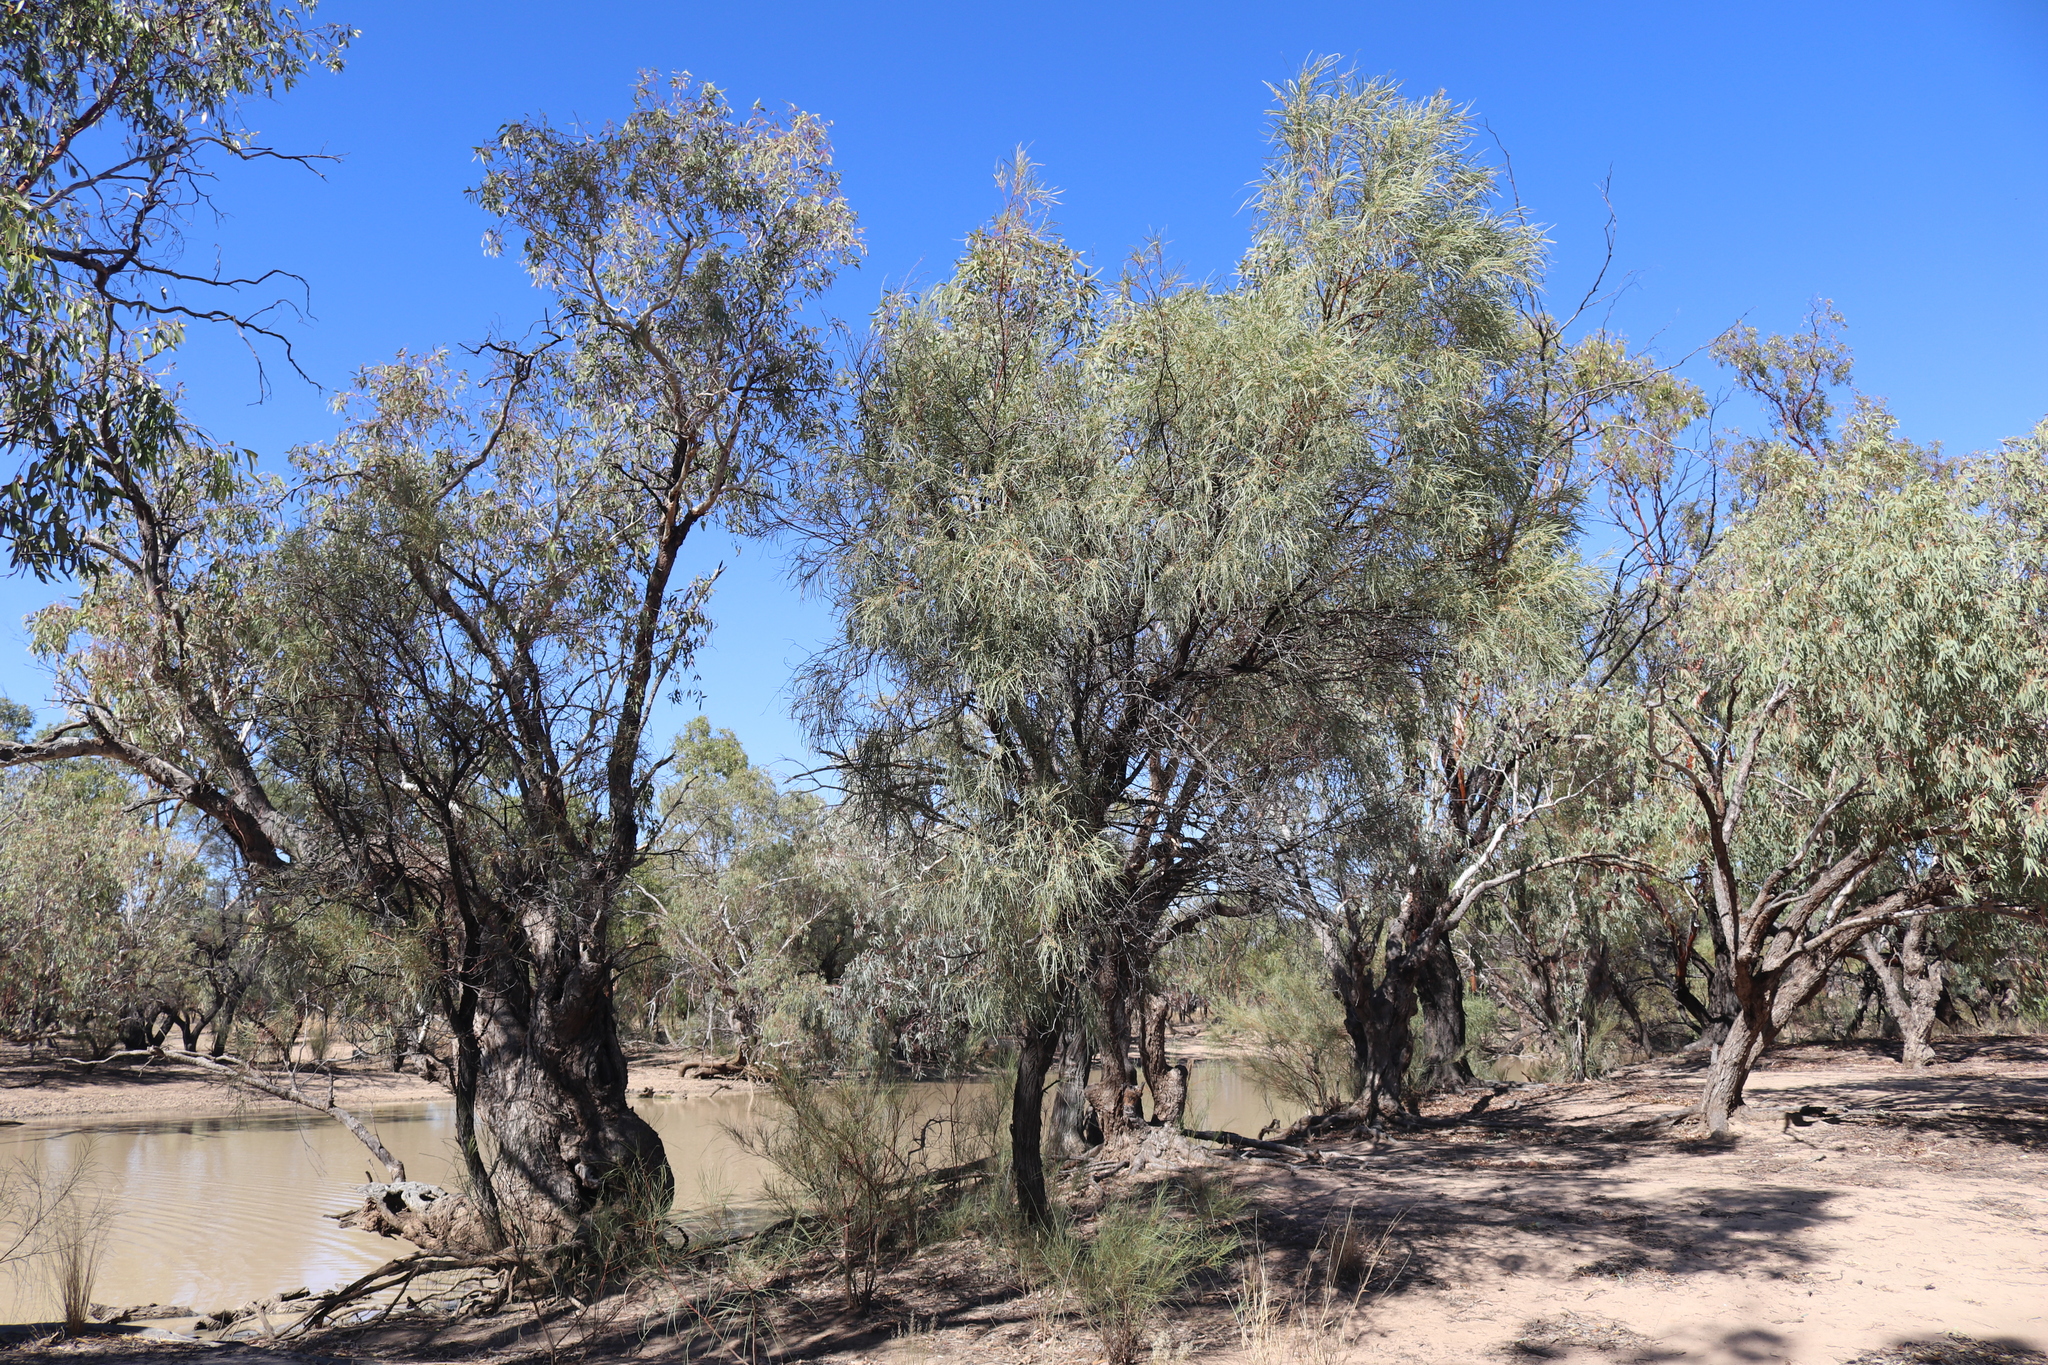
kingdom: Plantae
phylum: Tracheophyta
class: Magnoliopsida
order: Fabales
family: Fabaceae
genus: Acacia
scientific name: Acacia stenophylla
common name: River cooba
